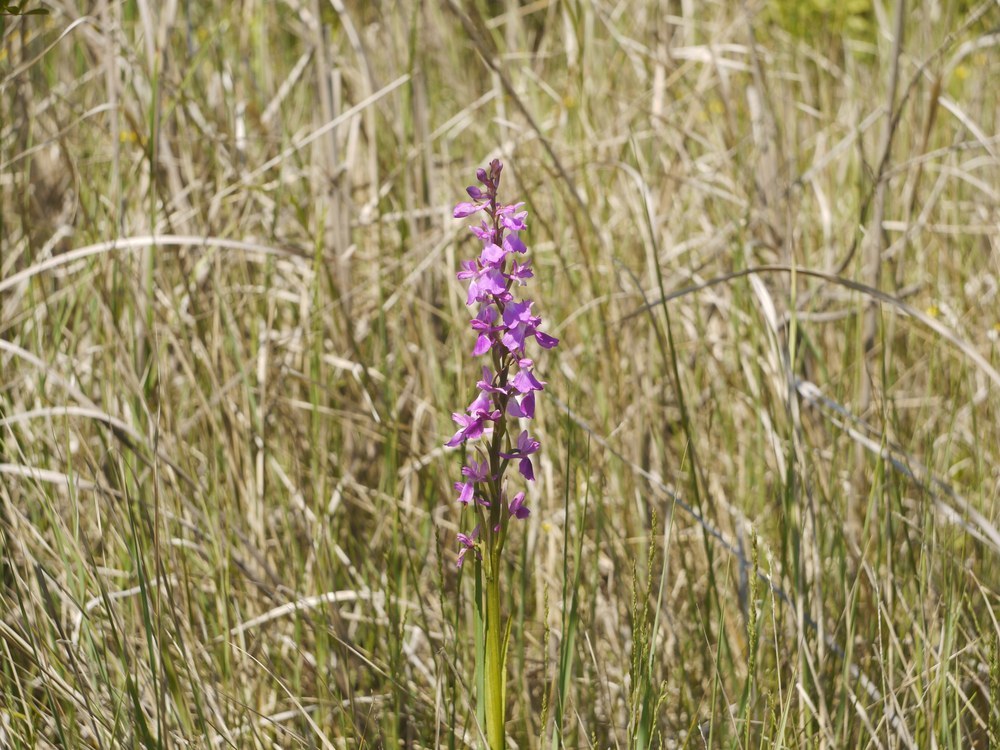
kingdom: Plantae
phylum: Tracheophyta
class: Liliopsida
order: Asparagales
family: Orchidaceae
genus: Anacamptis
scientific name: Anacamptis palustris
